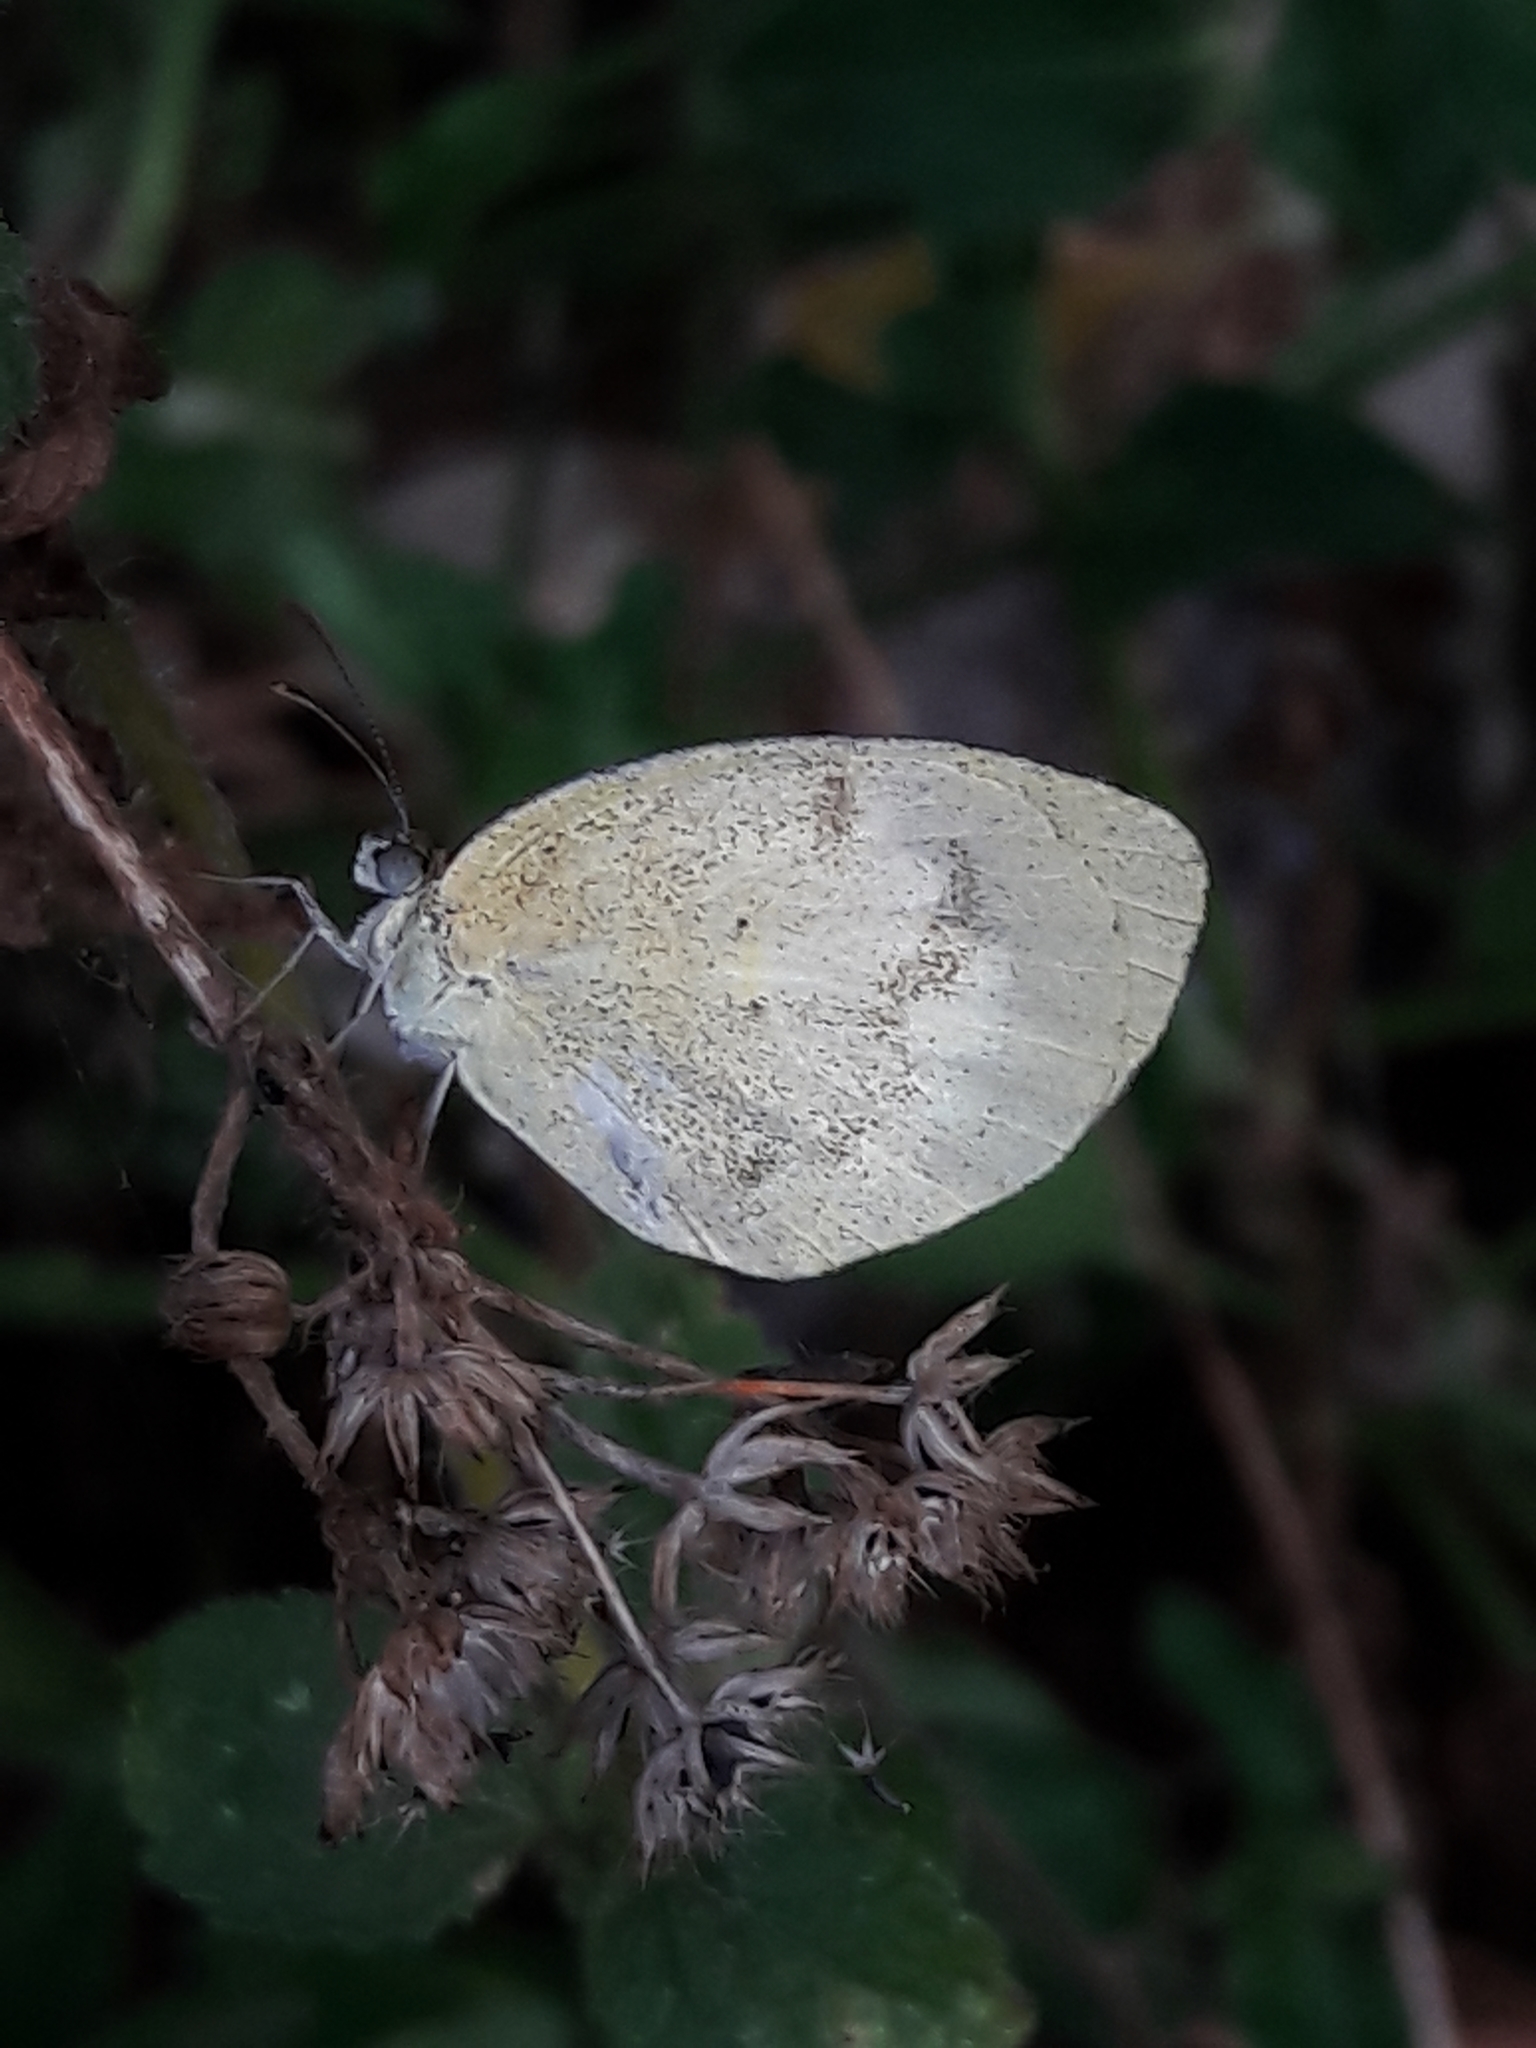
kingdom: Animalia
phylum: Arthropoda
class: Insecta
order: Lepidoptera
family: Pieridae
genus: Eurema
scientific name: Eurema elathea
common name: Banded yellow
